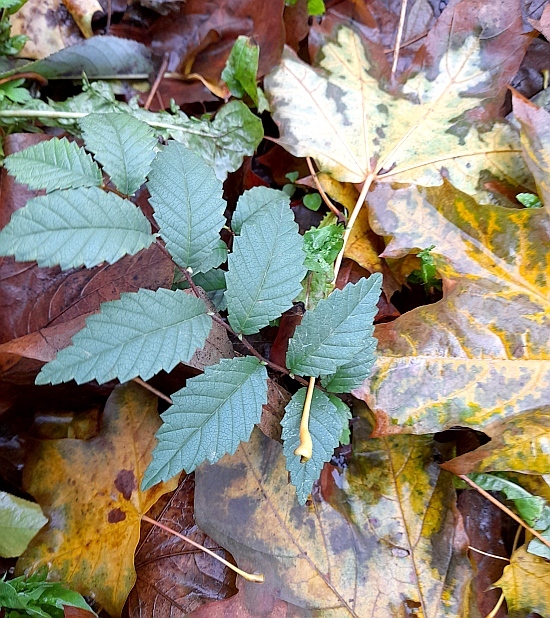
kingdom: Plantae
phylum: Tracheophyta
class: Magnoliopsida
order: Rosales
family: Ulmaceae
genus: Ulmus
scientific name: Ulmus pumila
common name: Siberian elm
